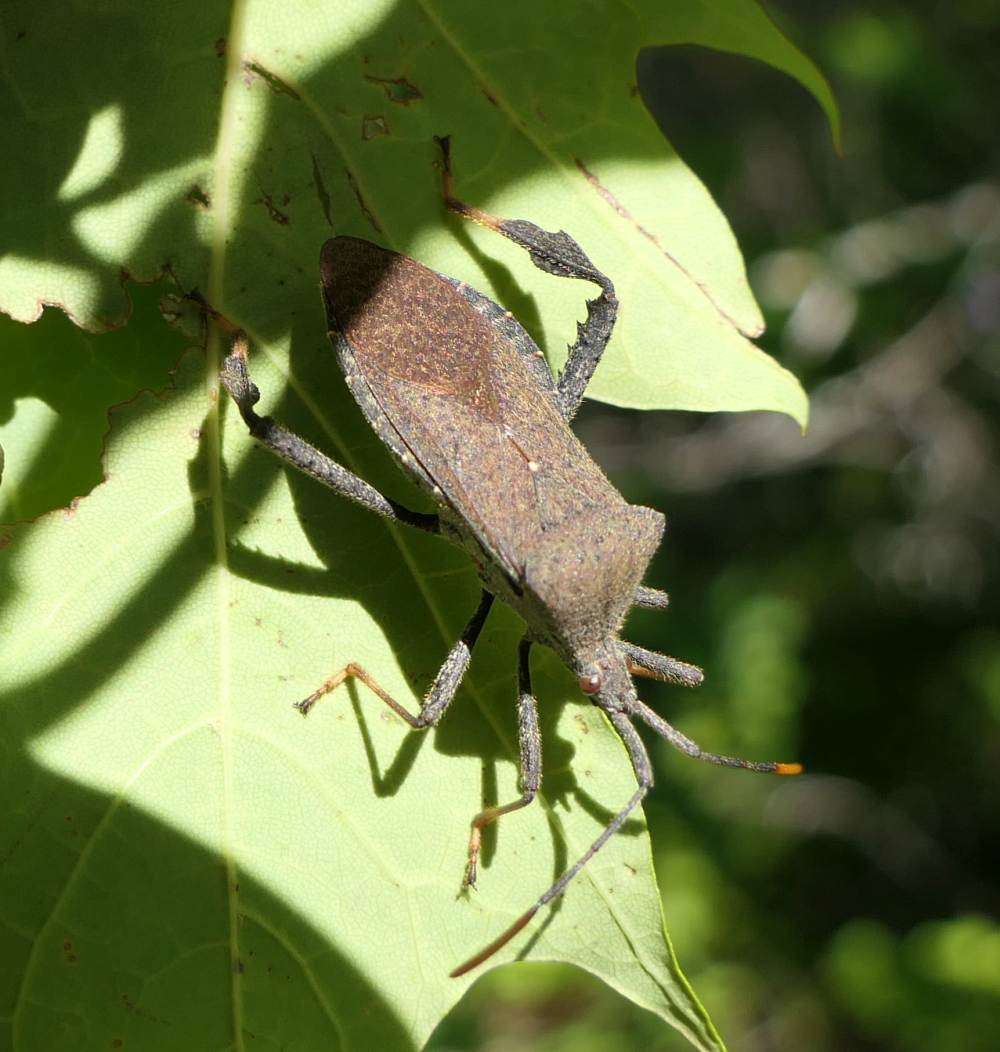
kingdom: Animalia
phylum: Arthropoda
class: Insecta
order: Hemiptera
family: Coreidae
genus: Acanthocephala
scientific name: Acanthocephala terminalis
